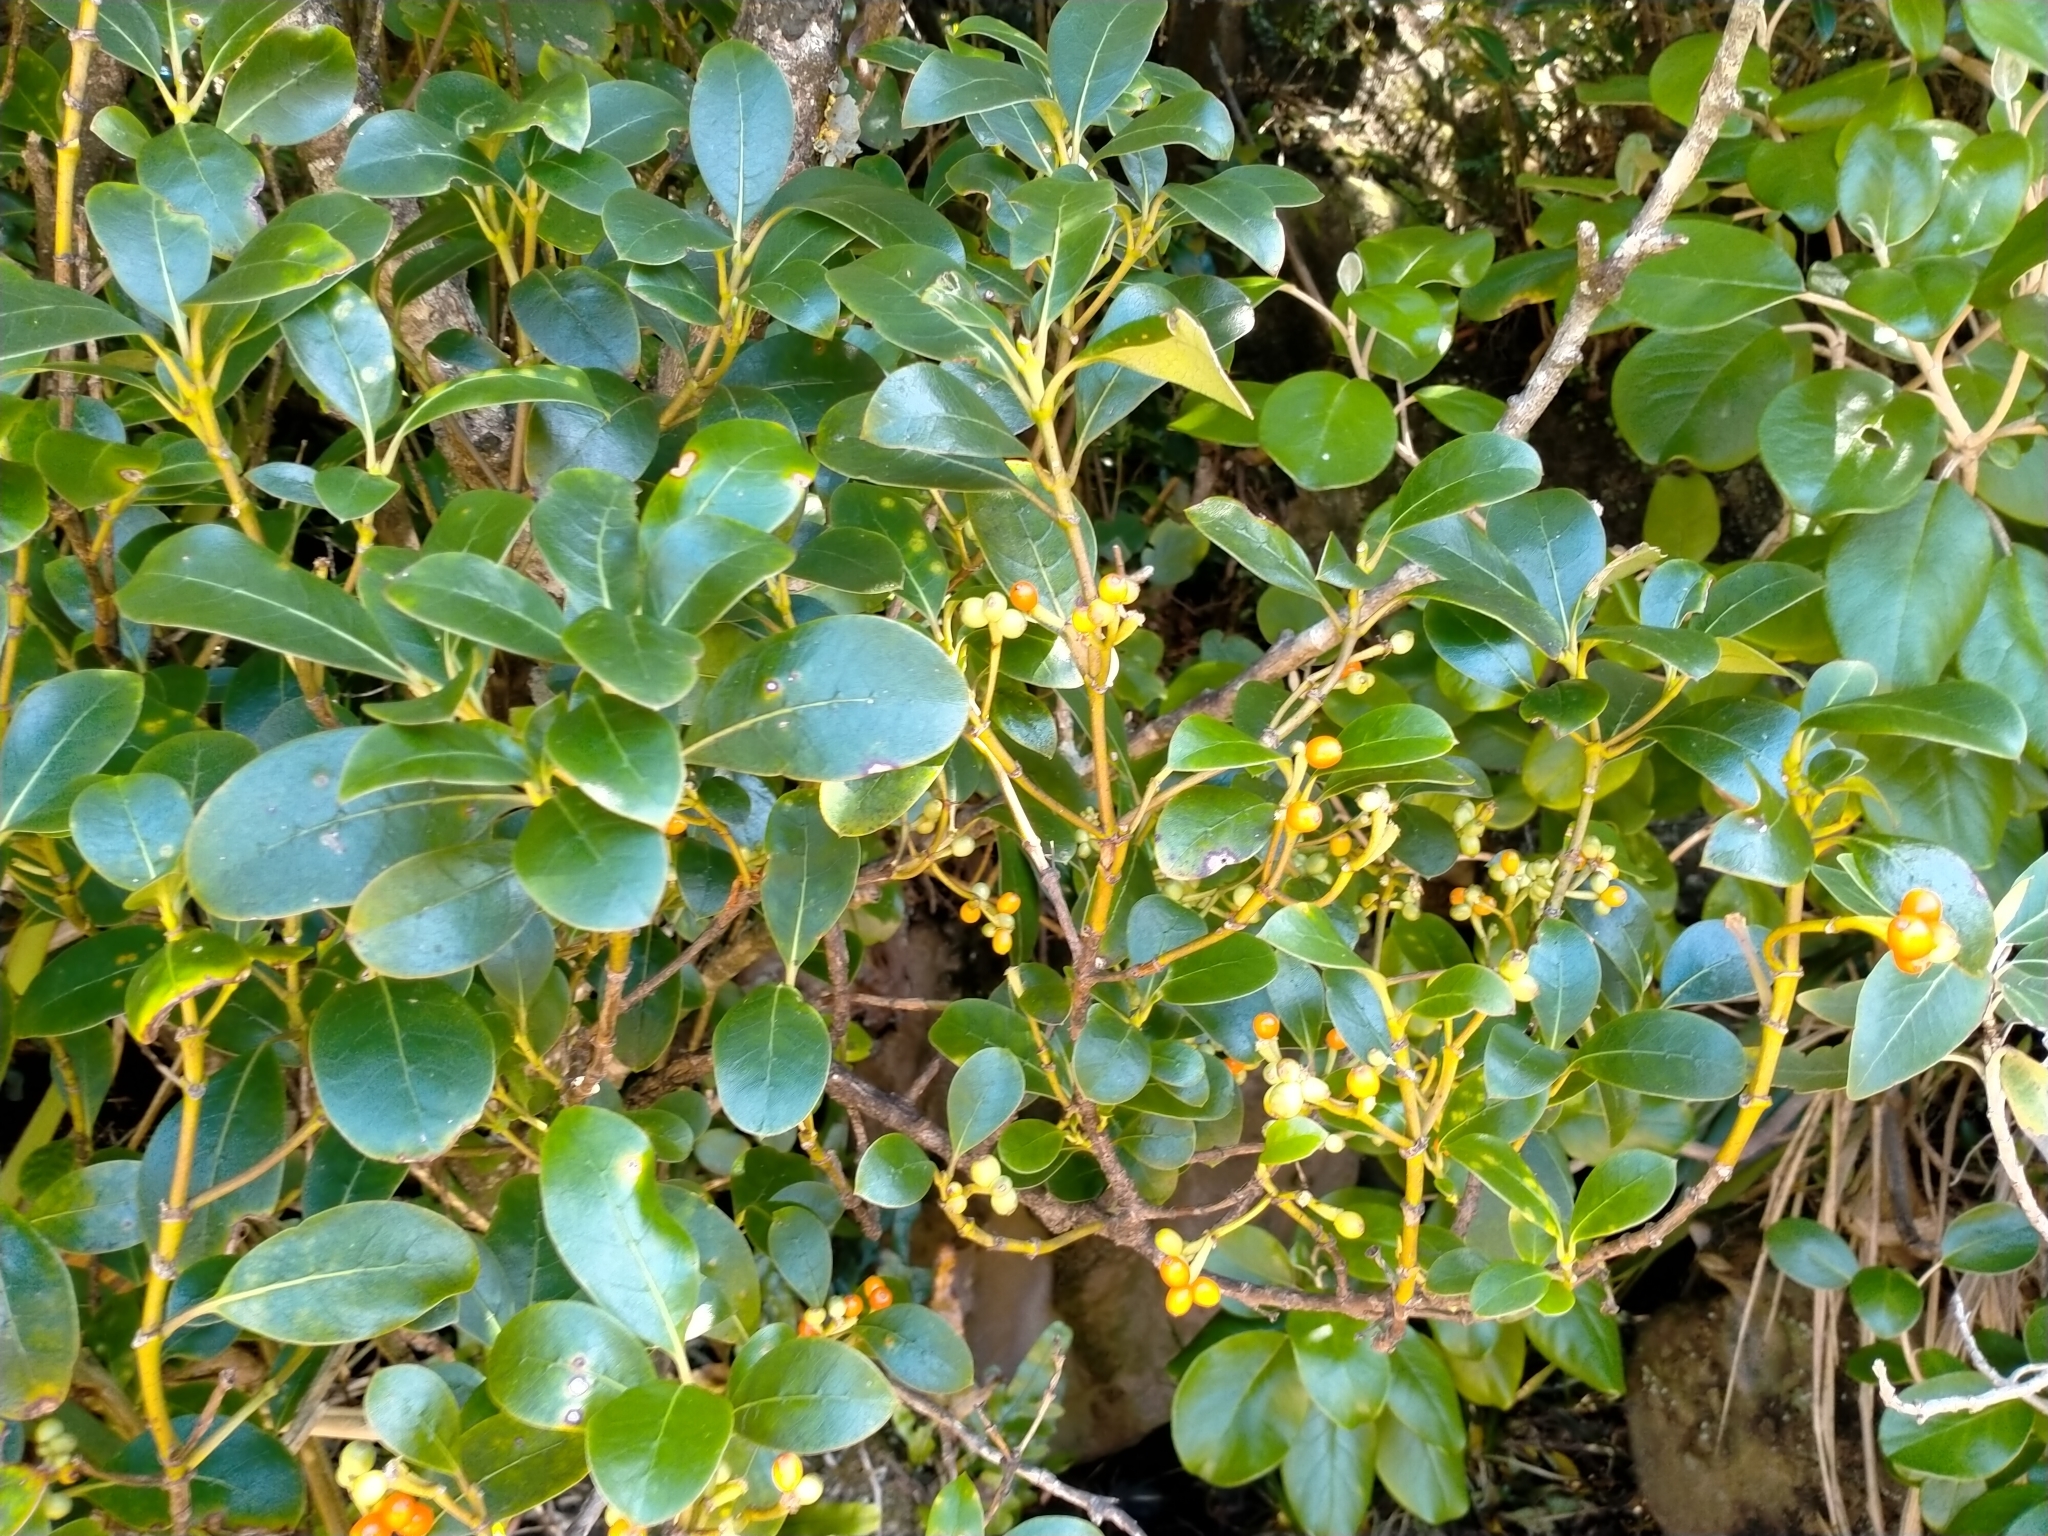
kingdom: Plantae
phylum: Tracheophyta
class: Magnoliopsida
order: Gentianales
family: Rubiaceae
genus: Coprosma
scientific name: Coprosma lucida
